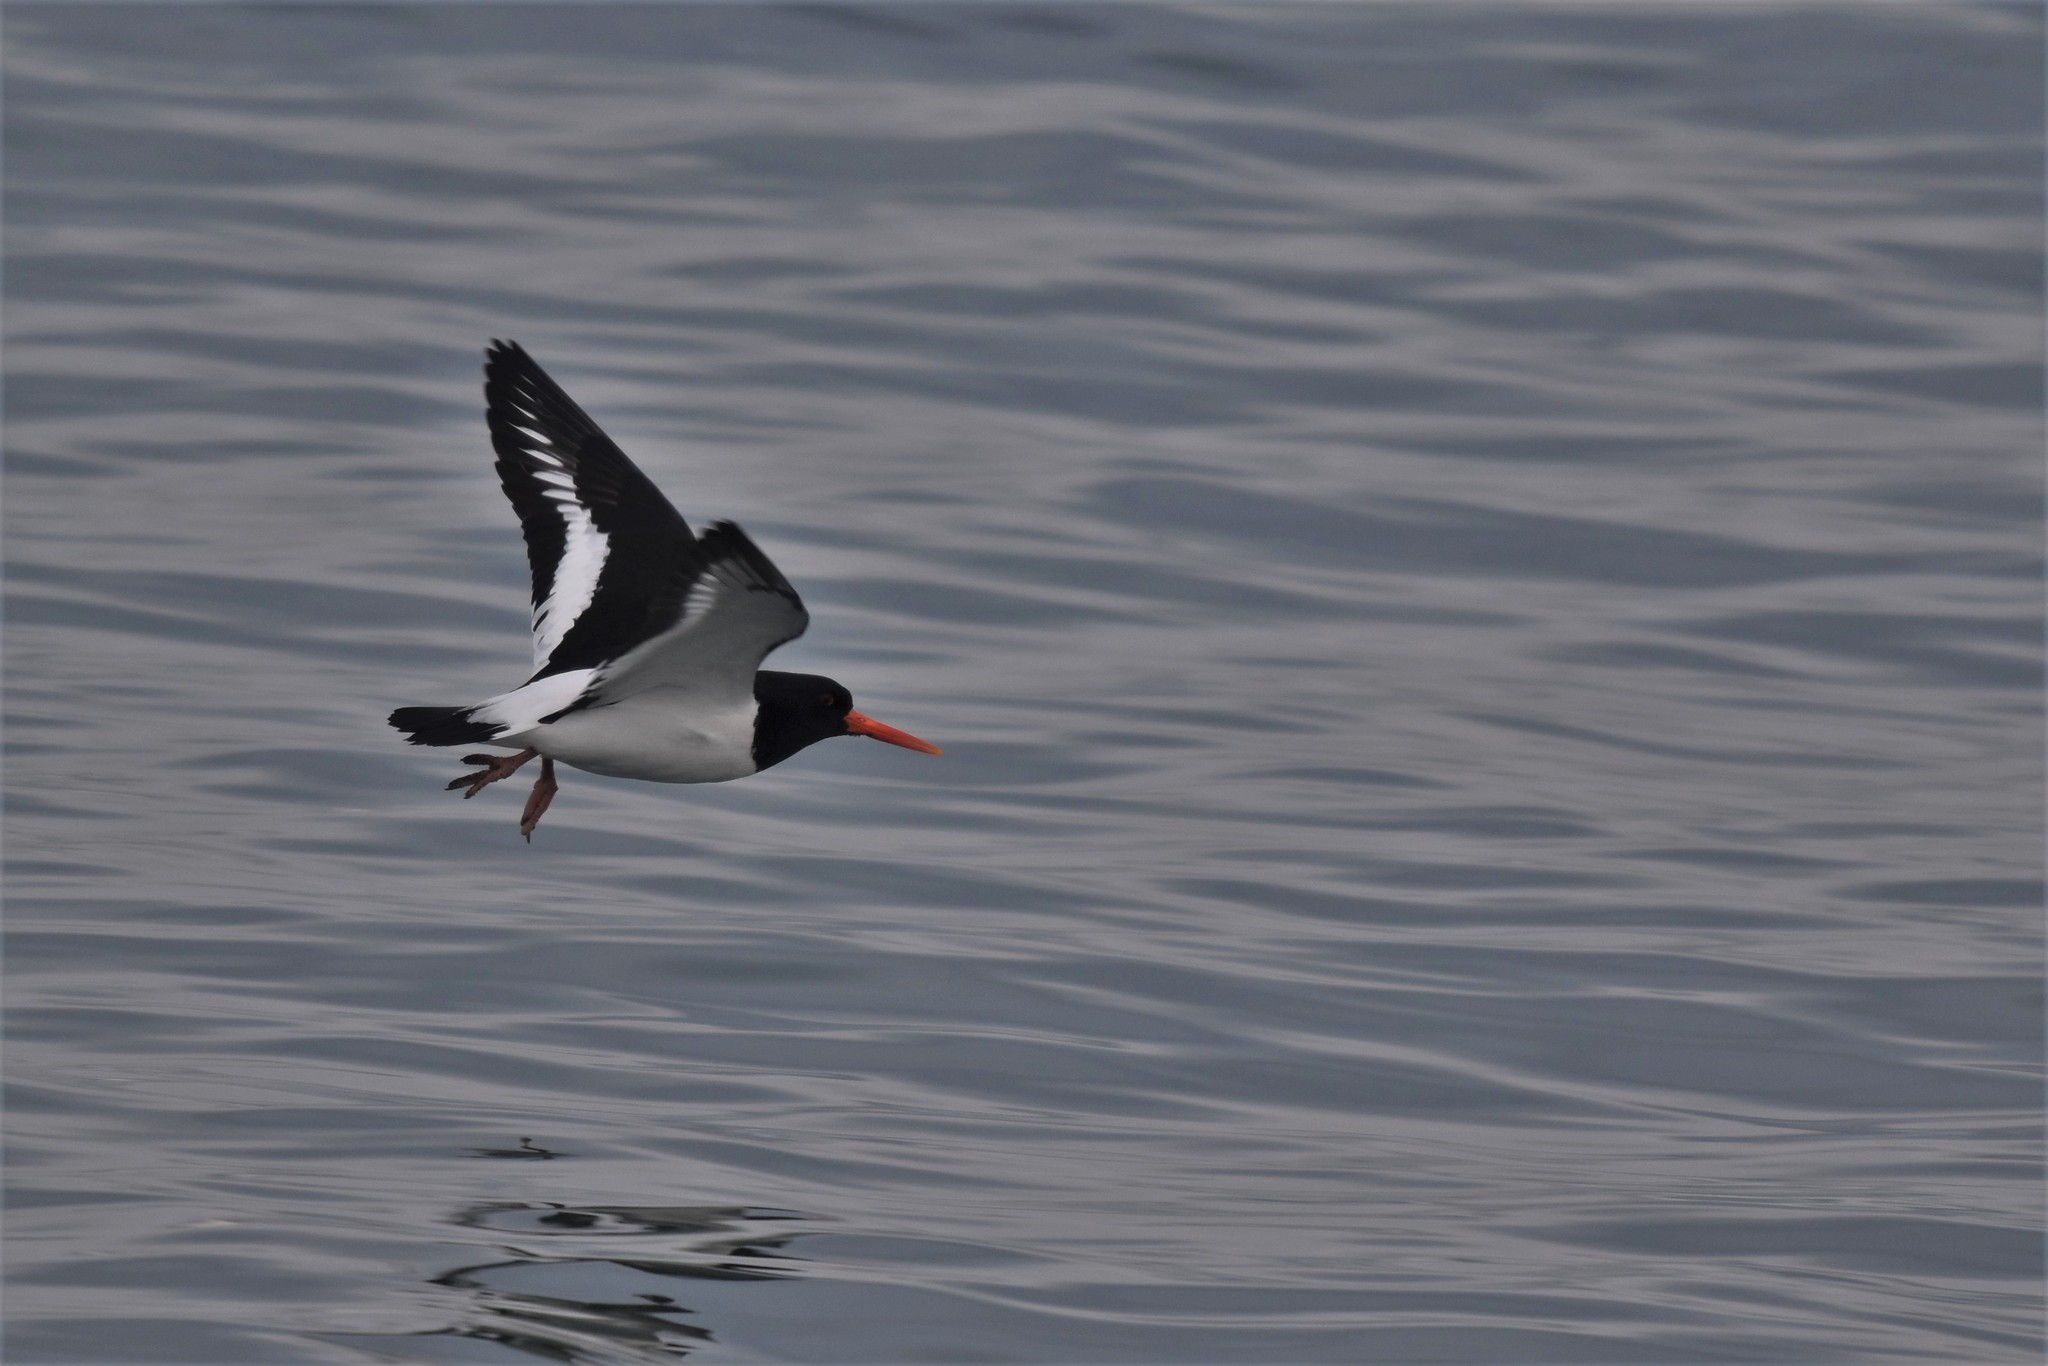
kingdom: Animalia
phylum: Chordata
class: Aves
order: Charadriiformes
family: Haematopodidae
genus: Haematopus
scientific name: Haematopus ostralegus
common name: Eurasian oystercatcher
